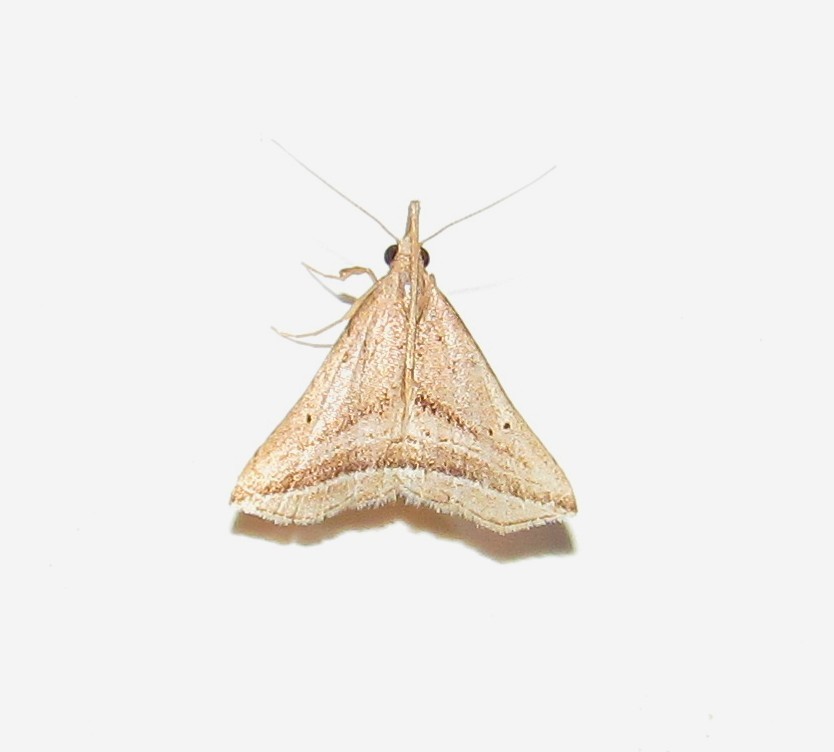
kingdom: Animalia
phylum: Arthropoda
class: Insecta
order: Lepidoptera
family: Erebidae
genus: Charmodia
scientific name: Charmodia vectis
